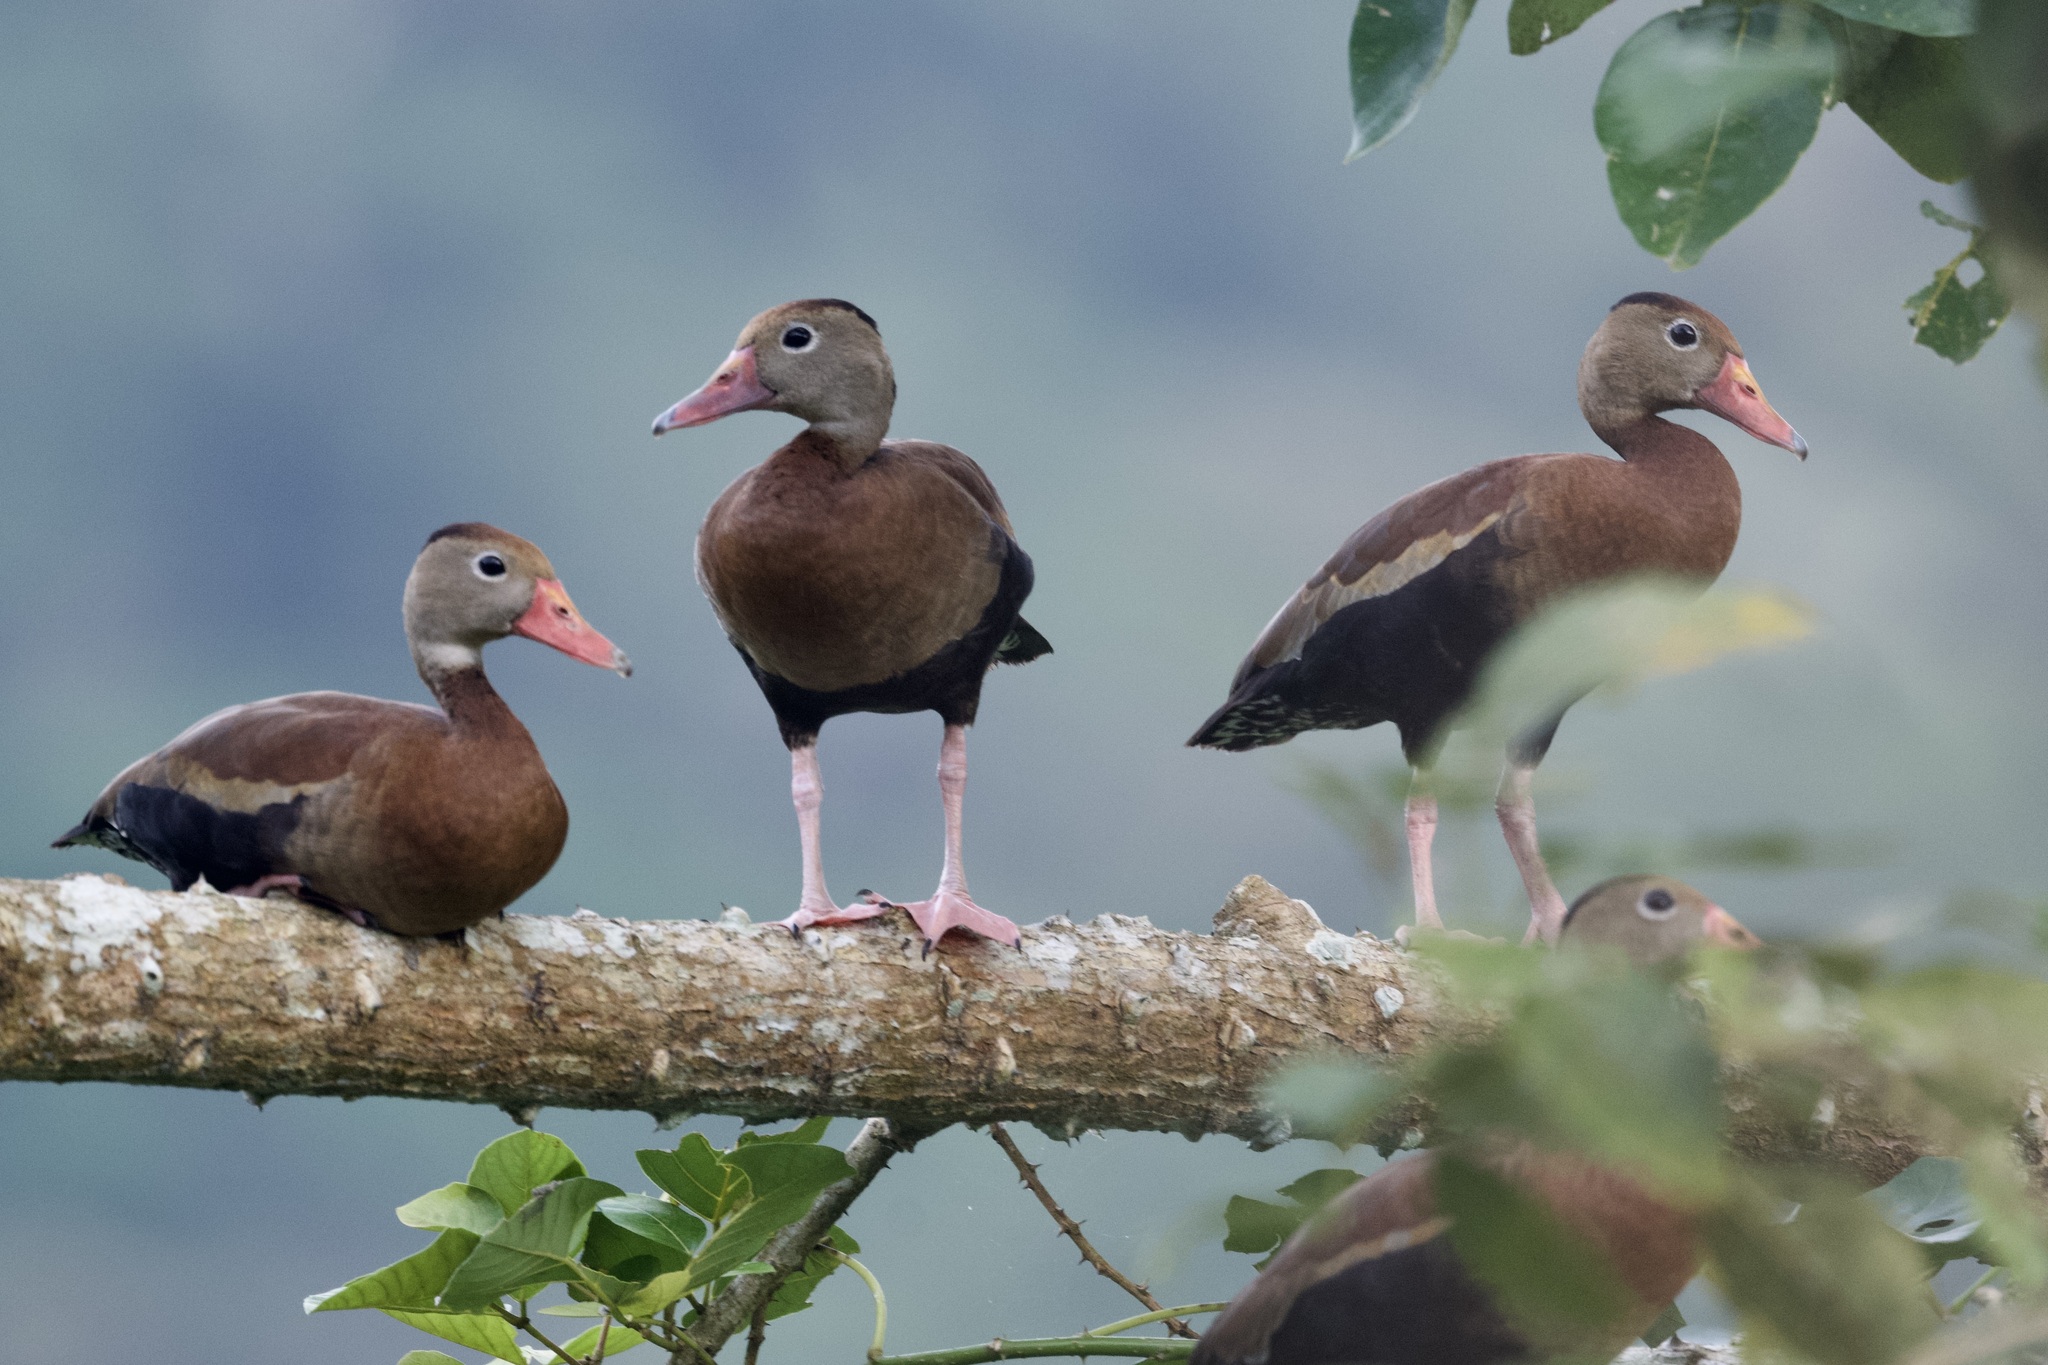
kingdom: Animalia
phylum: Chordata
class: Aves
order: Anseriformes
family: Anatidae
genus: Dendrocygna
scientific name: Dendrocygna autumnalis
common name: Black-bellied whistling duck
